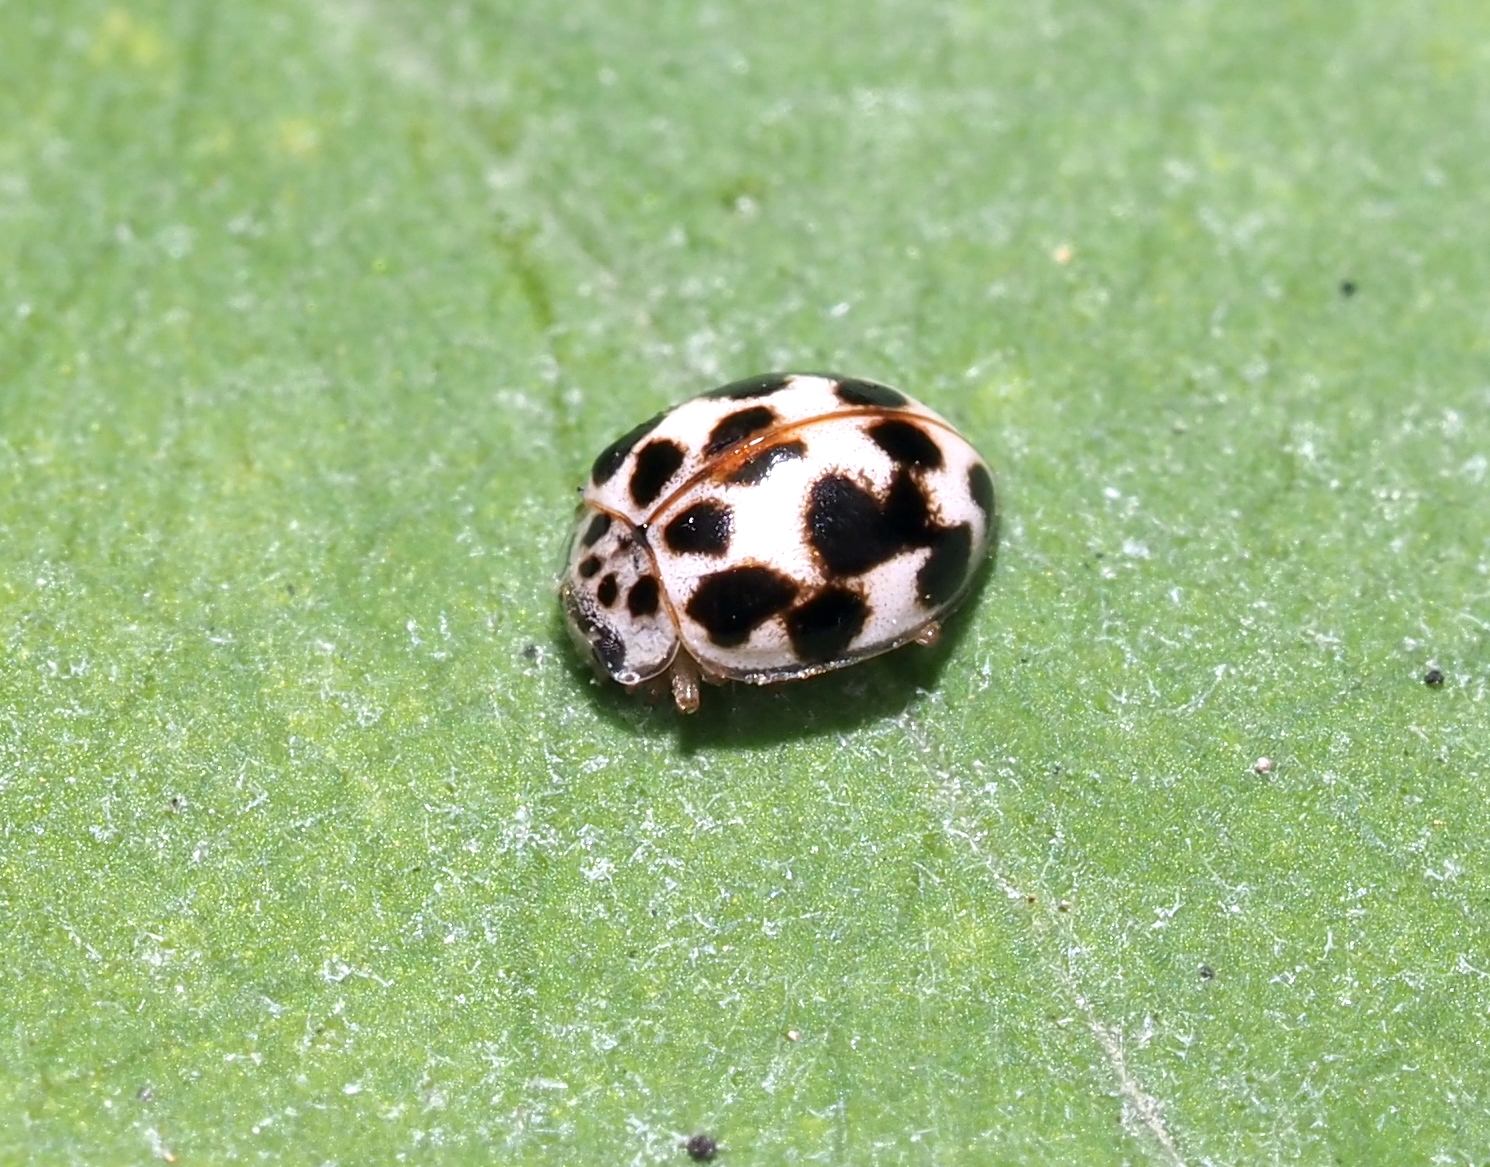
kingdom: Animalia
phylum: Arthropoda
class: Insecta
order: Coleoptera
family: Coccinellidae
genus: Psyllobora
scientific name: Psyllobora vigintimaculata
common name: Ladybird beetle
